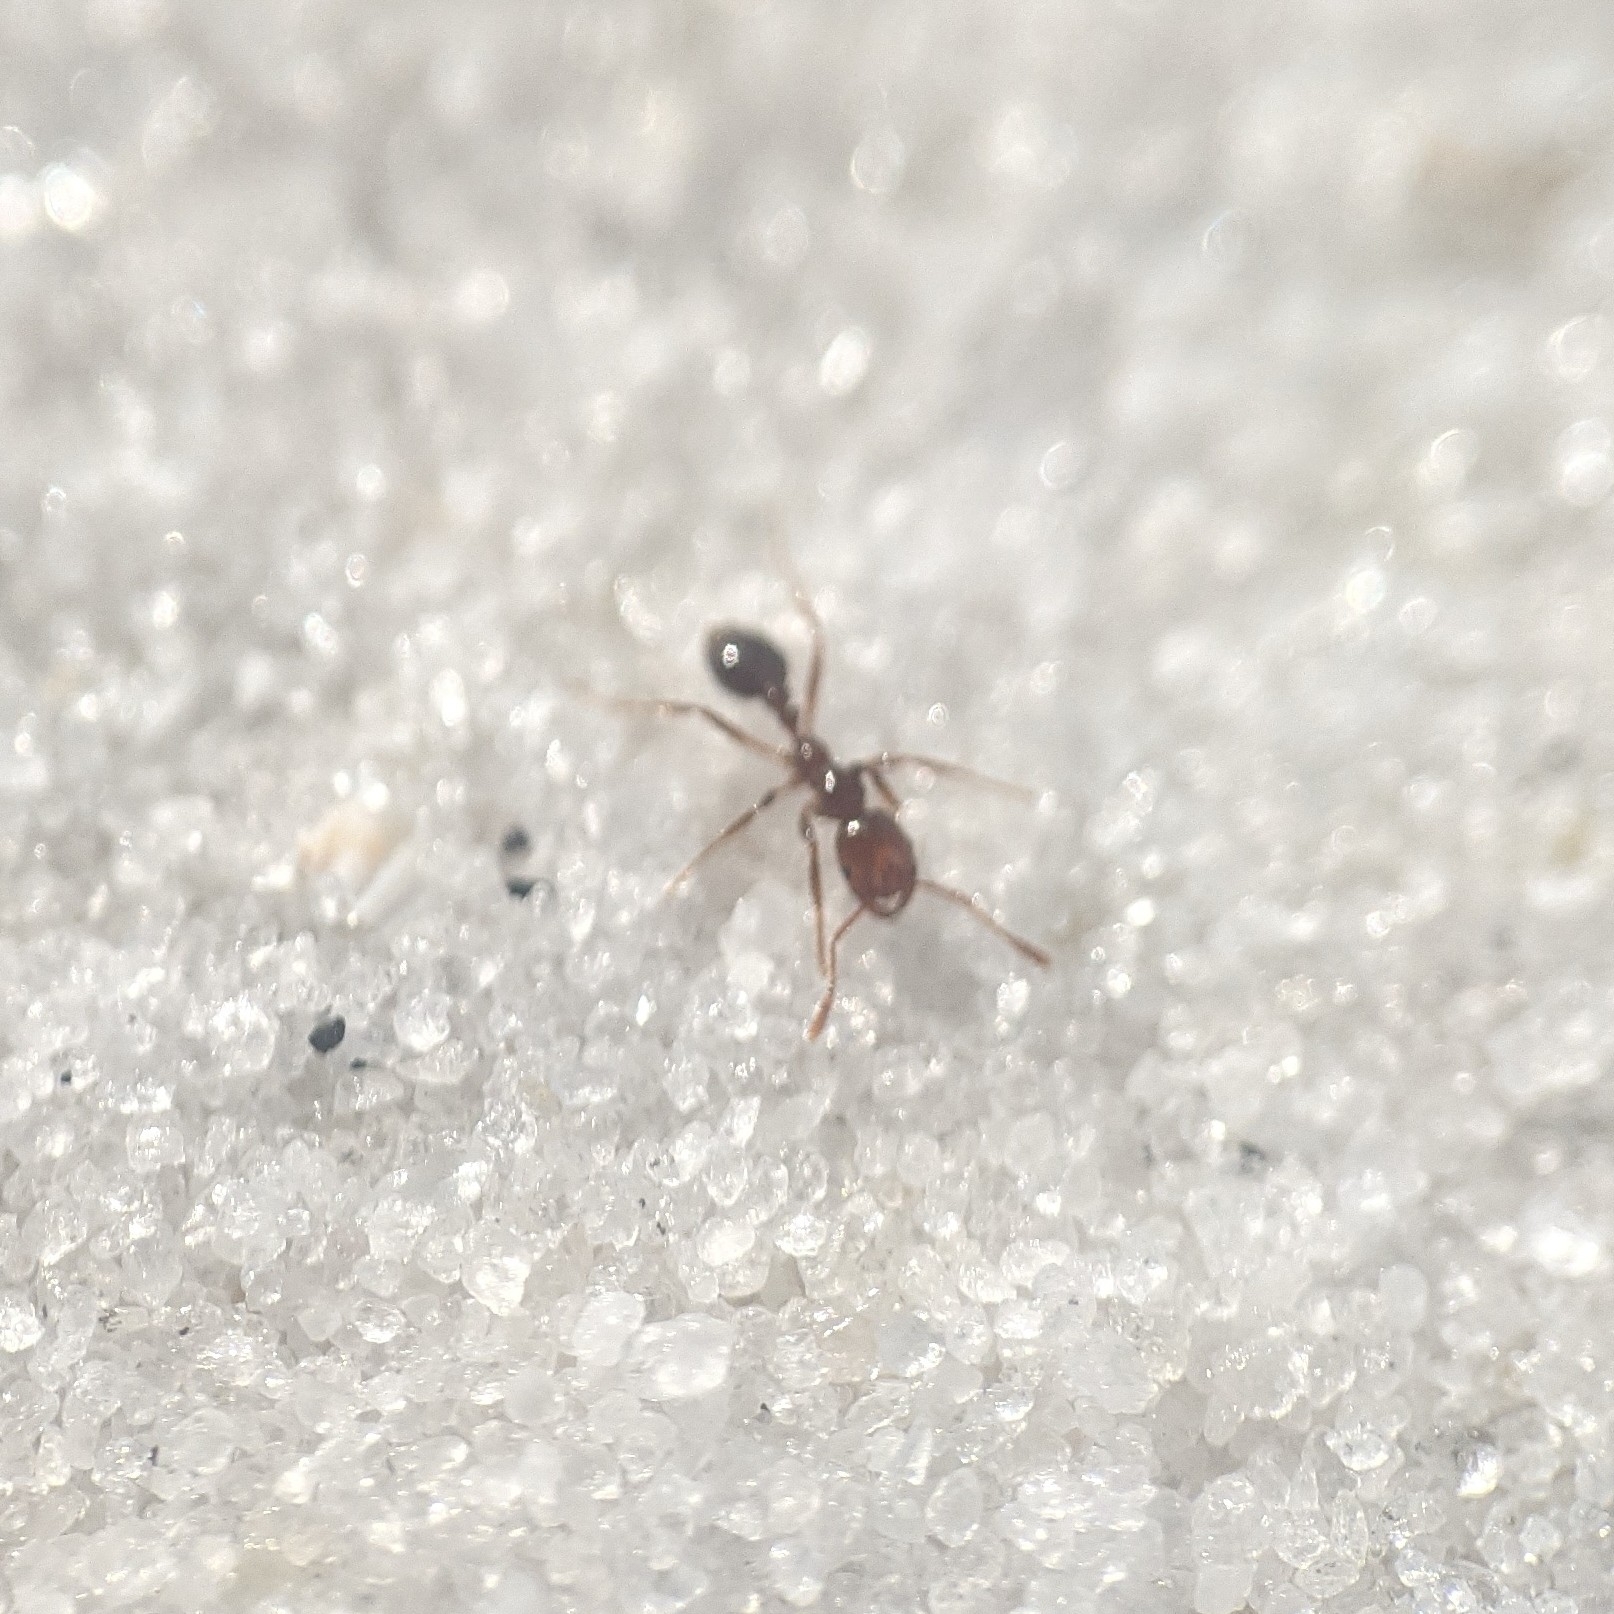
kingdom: Animalia
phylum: Arthropoda
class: Insecta
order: Hymenoptera
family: Formicidae
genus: Solenopsis
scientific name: Solenopsis invicta
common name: Red imported fire ant
